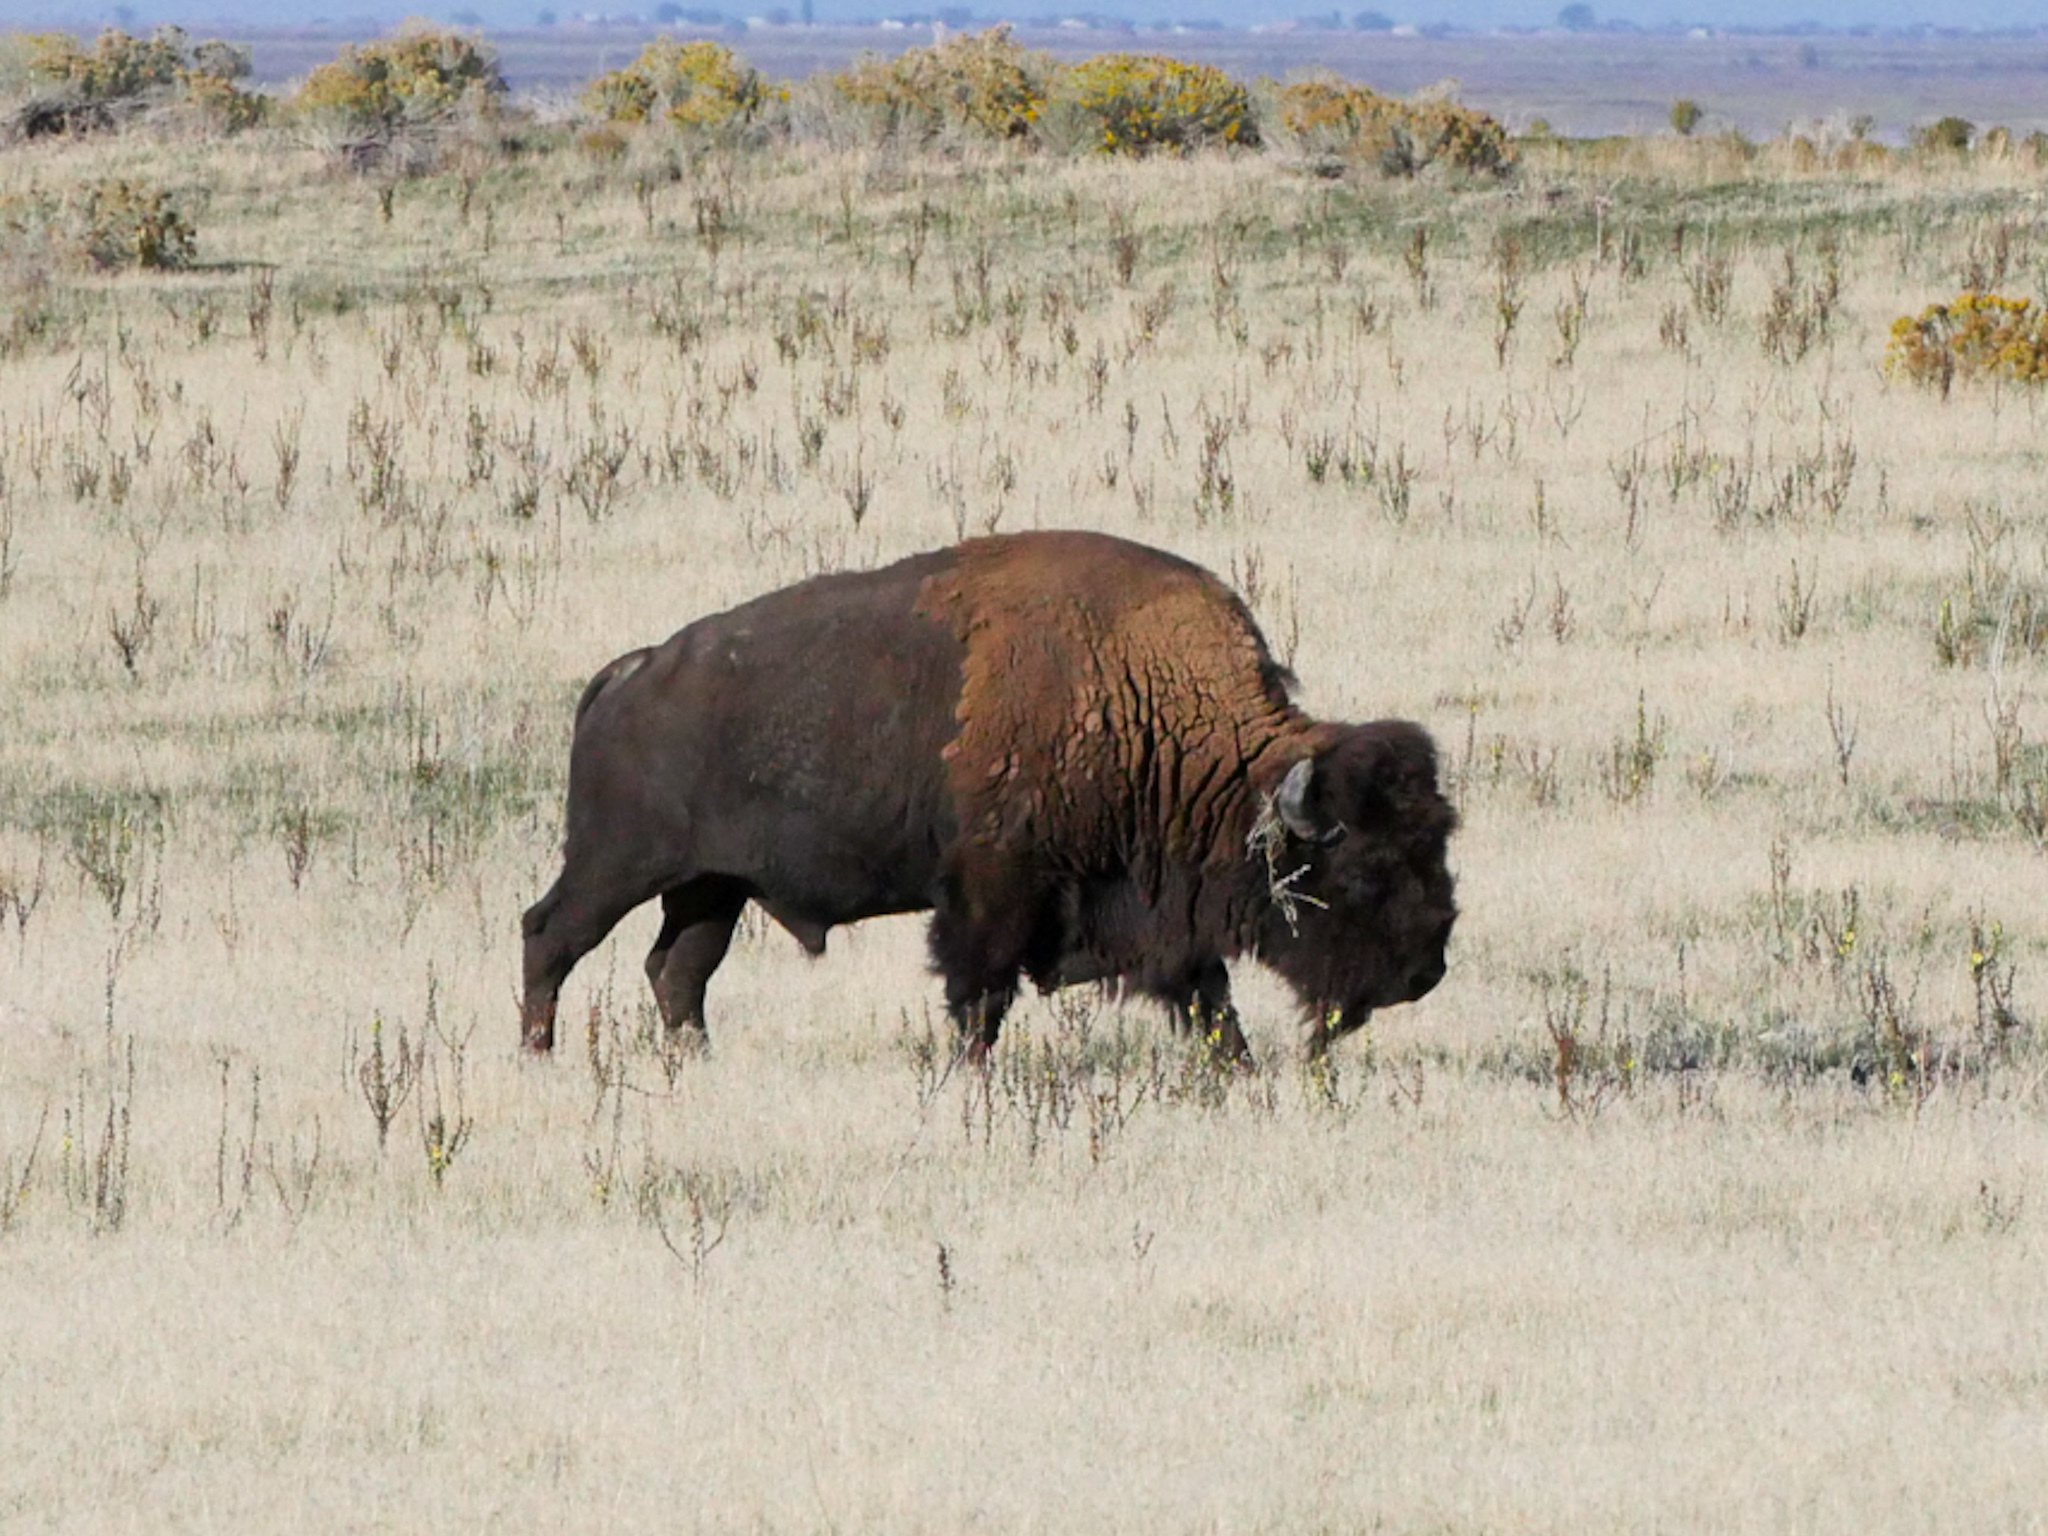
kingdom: Animalia
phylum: Chordata
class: Mammalia
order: Artiodactyla
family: Bovidae
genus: Bison
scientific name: Bison bison
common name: American bison
